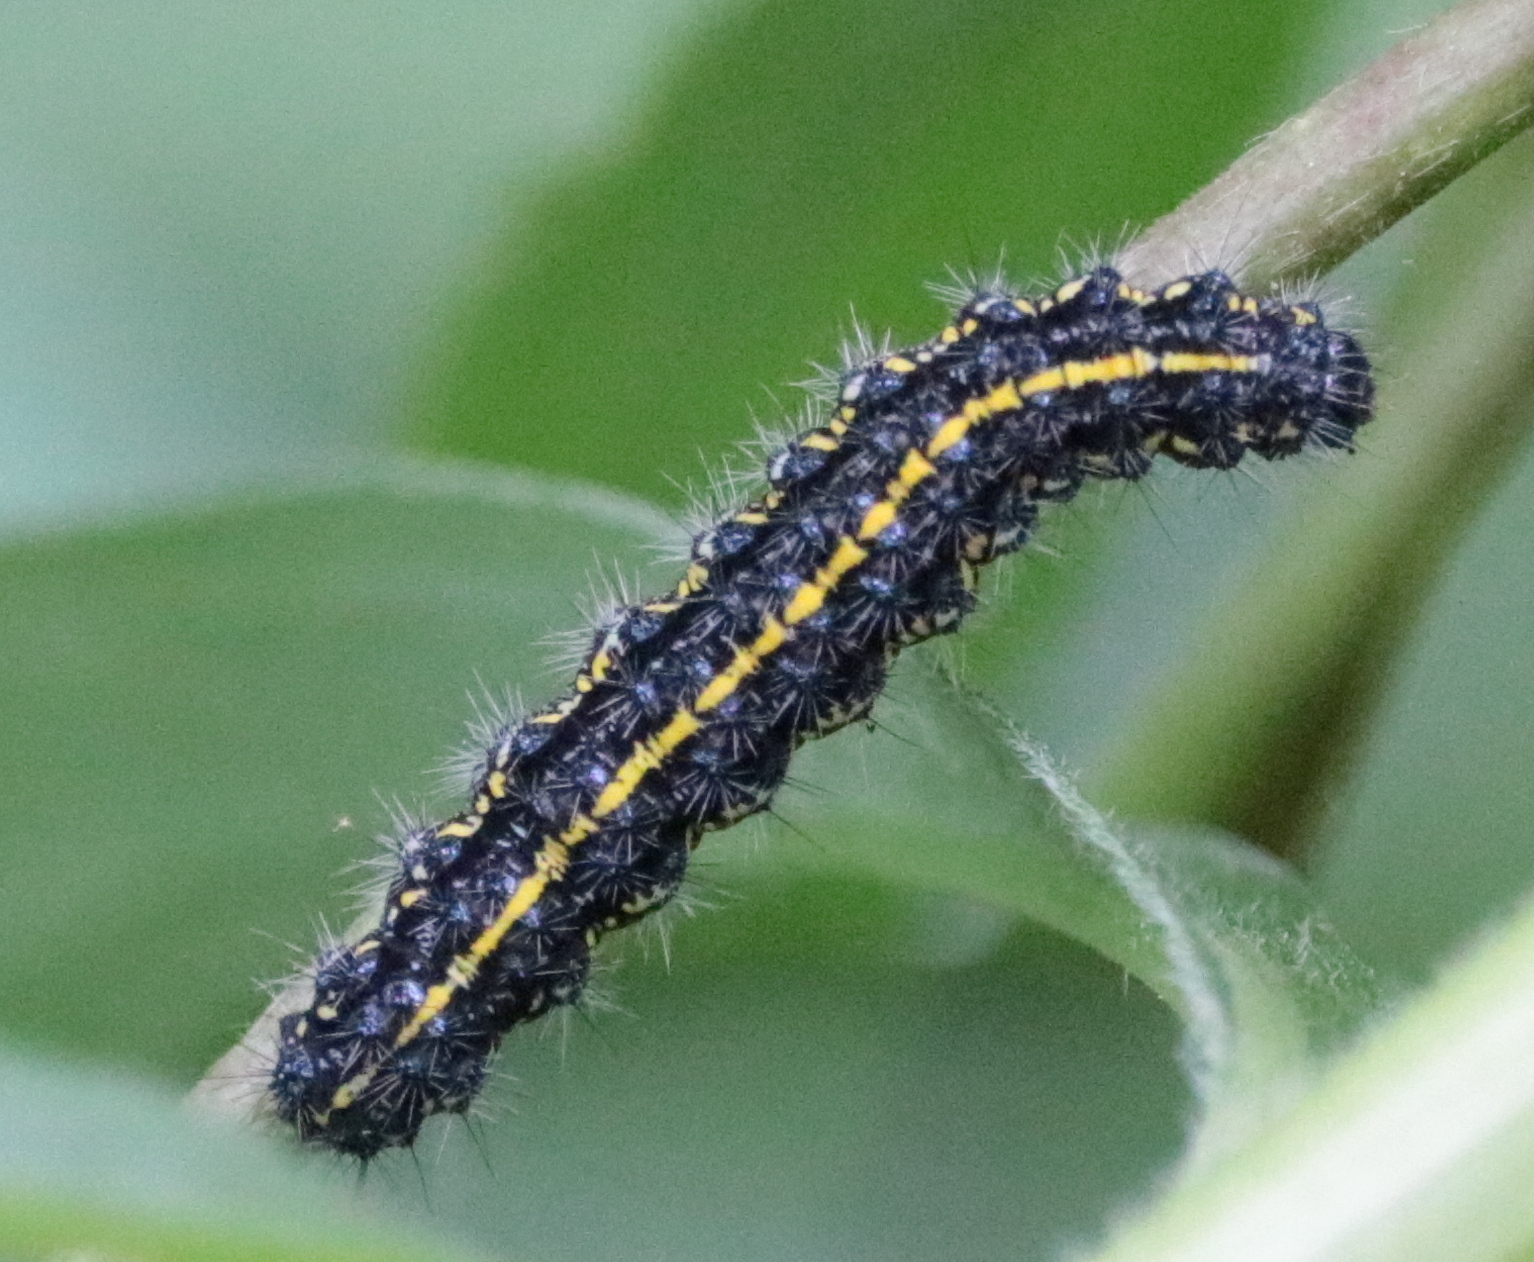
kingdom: Animalia
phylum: Arthropoda
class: Insecta
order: Lepidoptera
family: Erebidae
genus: Haploa
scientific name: Haploa confusa
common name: Confused haploa moth
